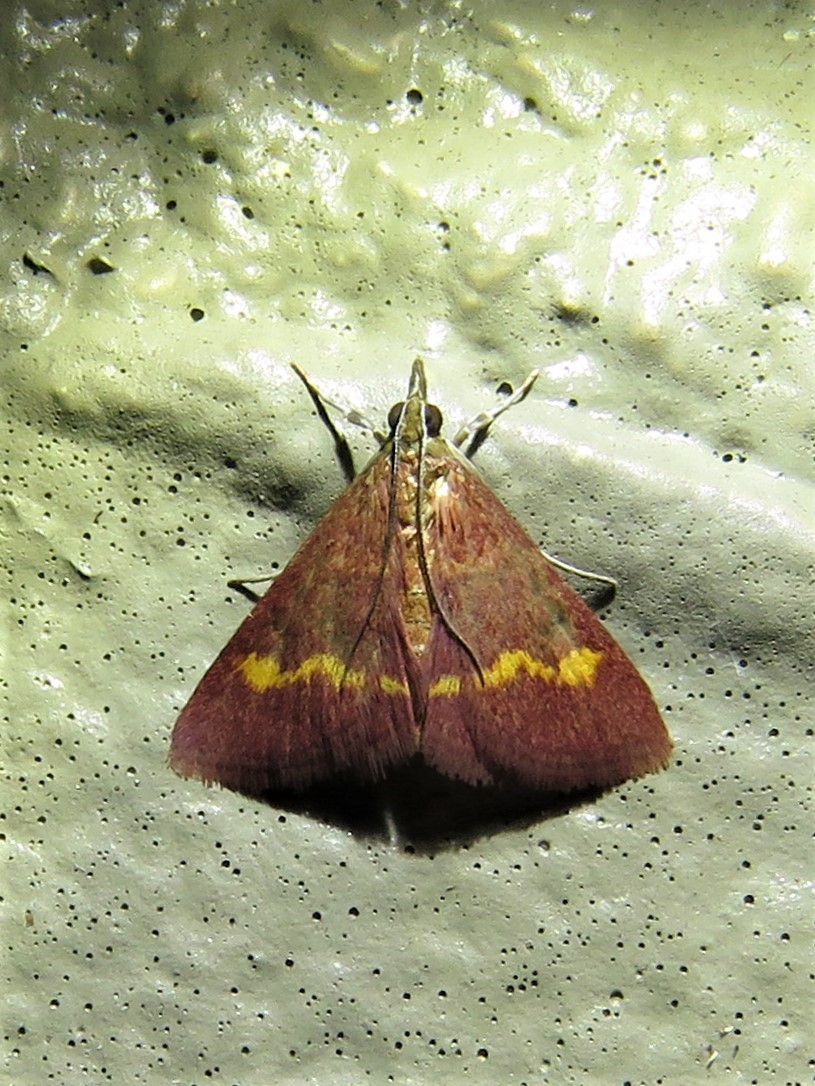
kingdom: Animalia
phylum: Arthropoda
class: Insecta
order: Lepidoptera
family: Crambidae
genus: Pyrausta
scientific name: Pyrausta pseuderosnealis
